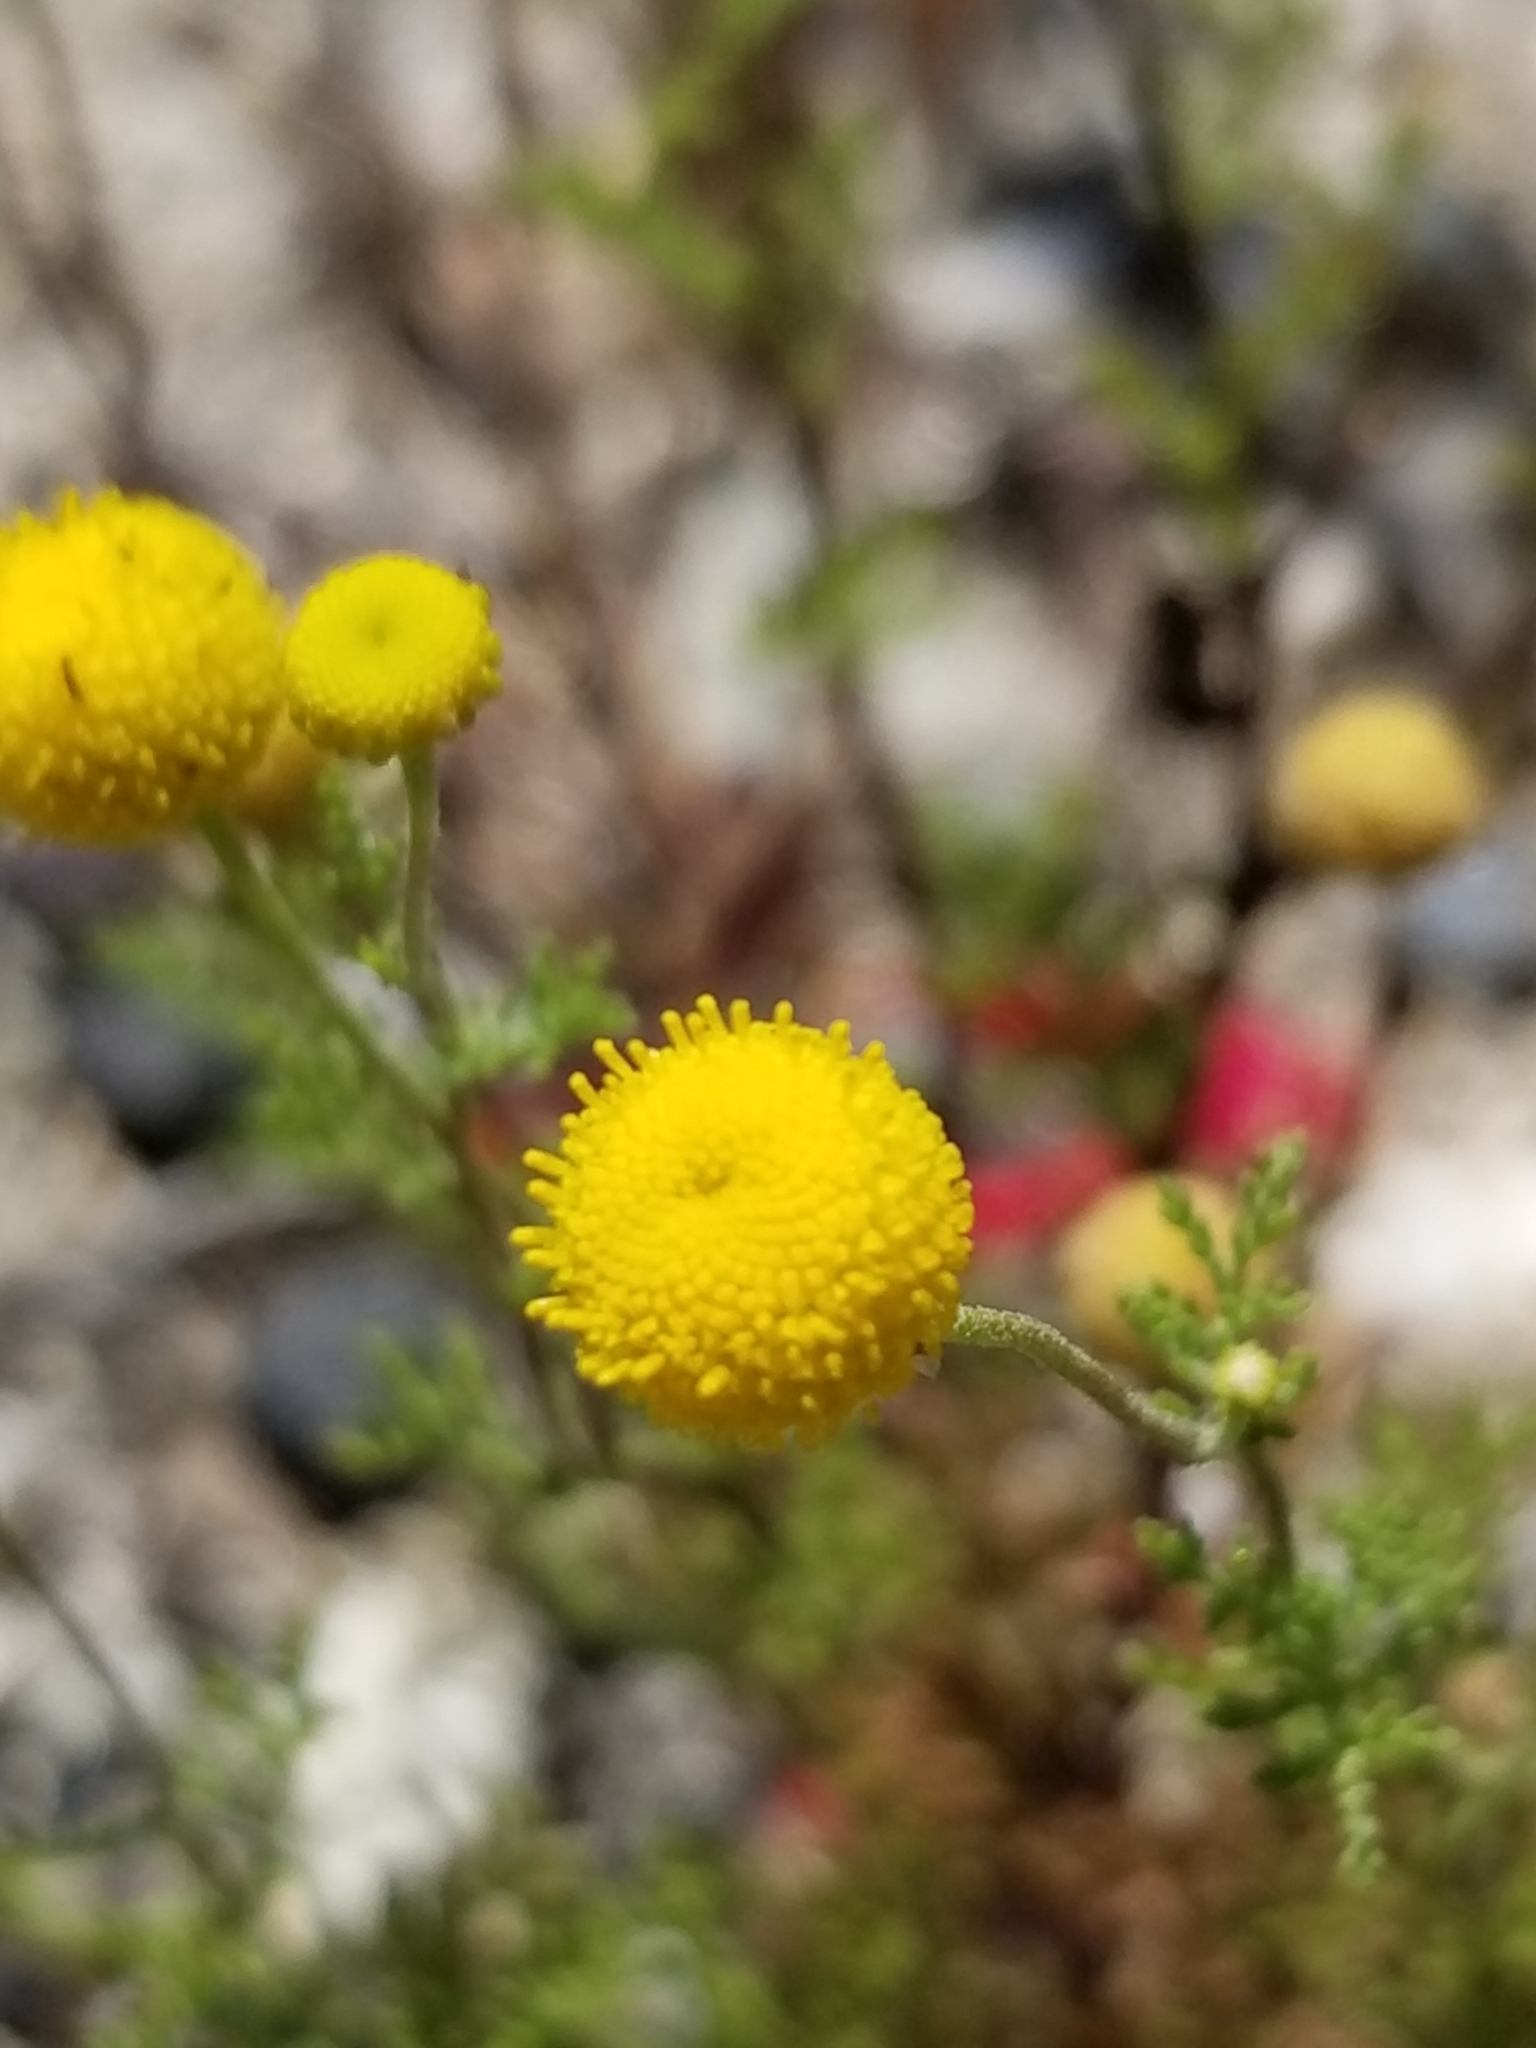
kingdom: Plantae
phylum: Tracheophyta
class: Magnoliopsida
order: Asterales
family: Asteraceae
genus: Oncosiphon
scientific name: Oncosiphon pilulifer
